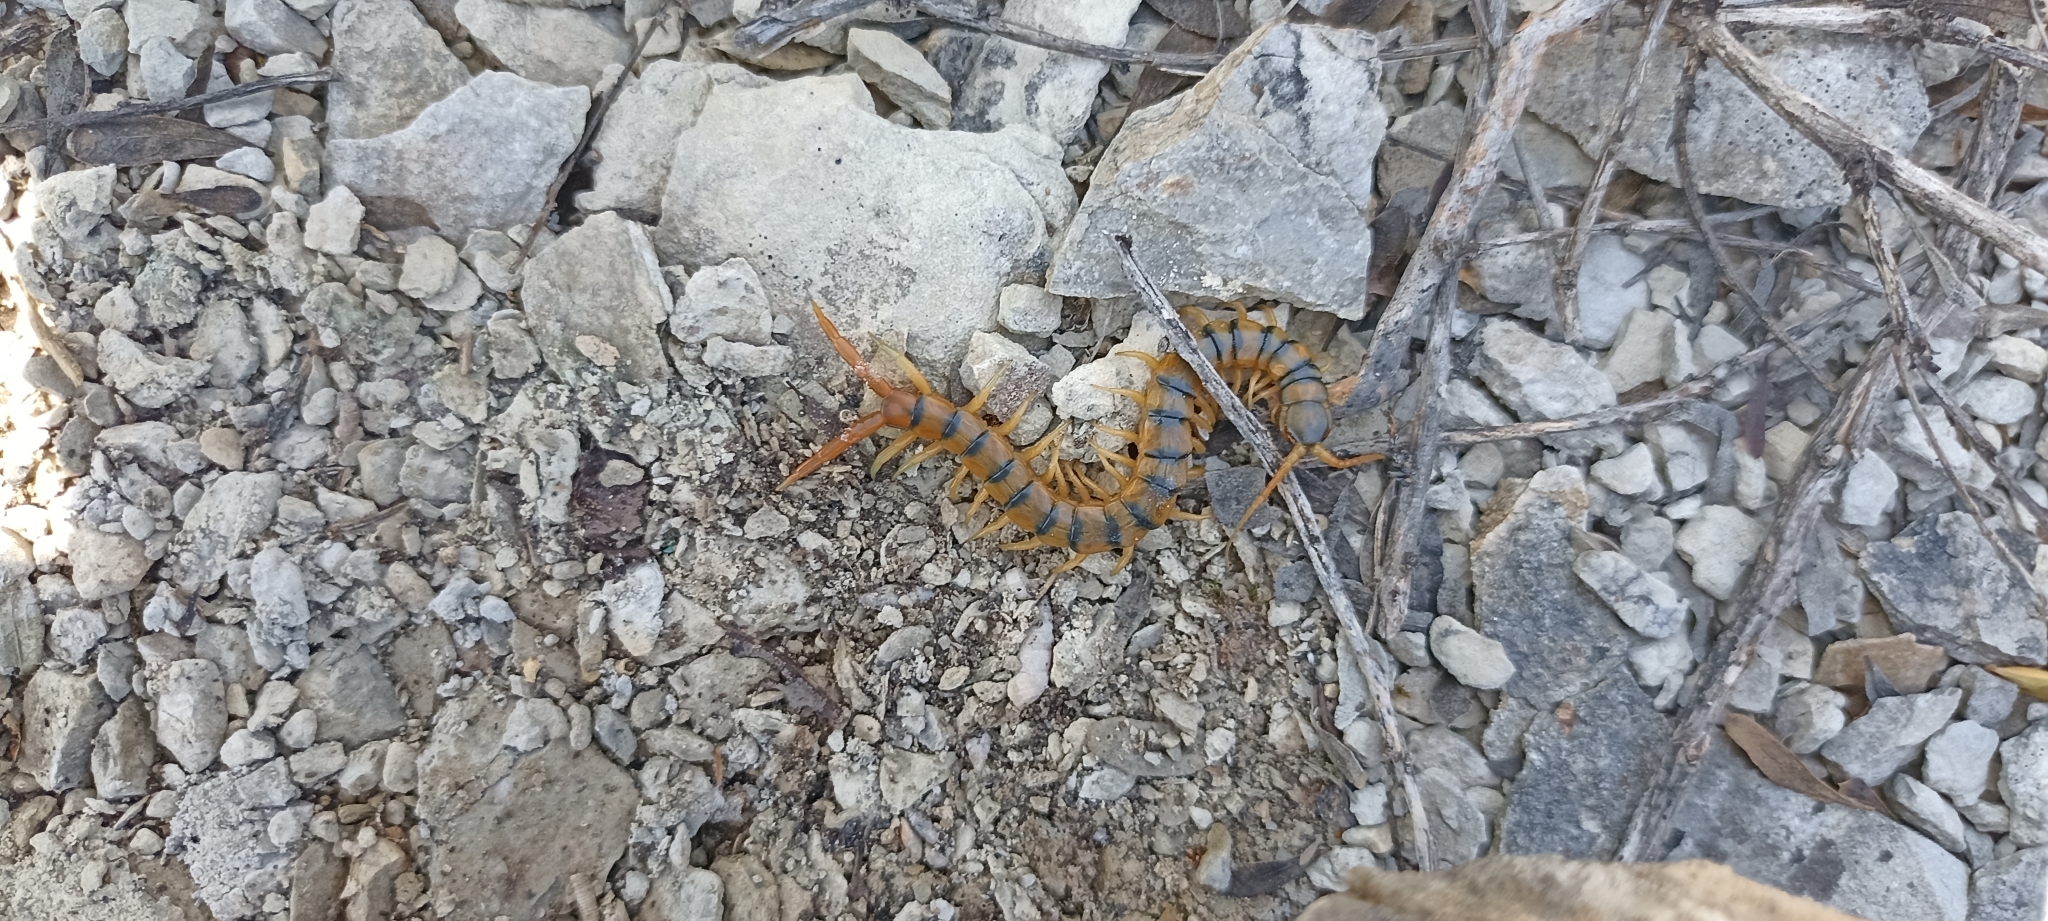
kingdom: Animalia
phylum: Arthropoda
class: Chilopoda
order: Scolopendromorpha
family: Scolopendridae
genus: Scolopendra
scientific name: Scolopendra cingulata
